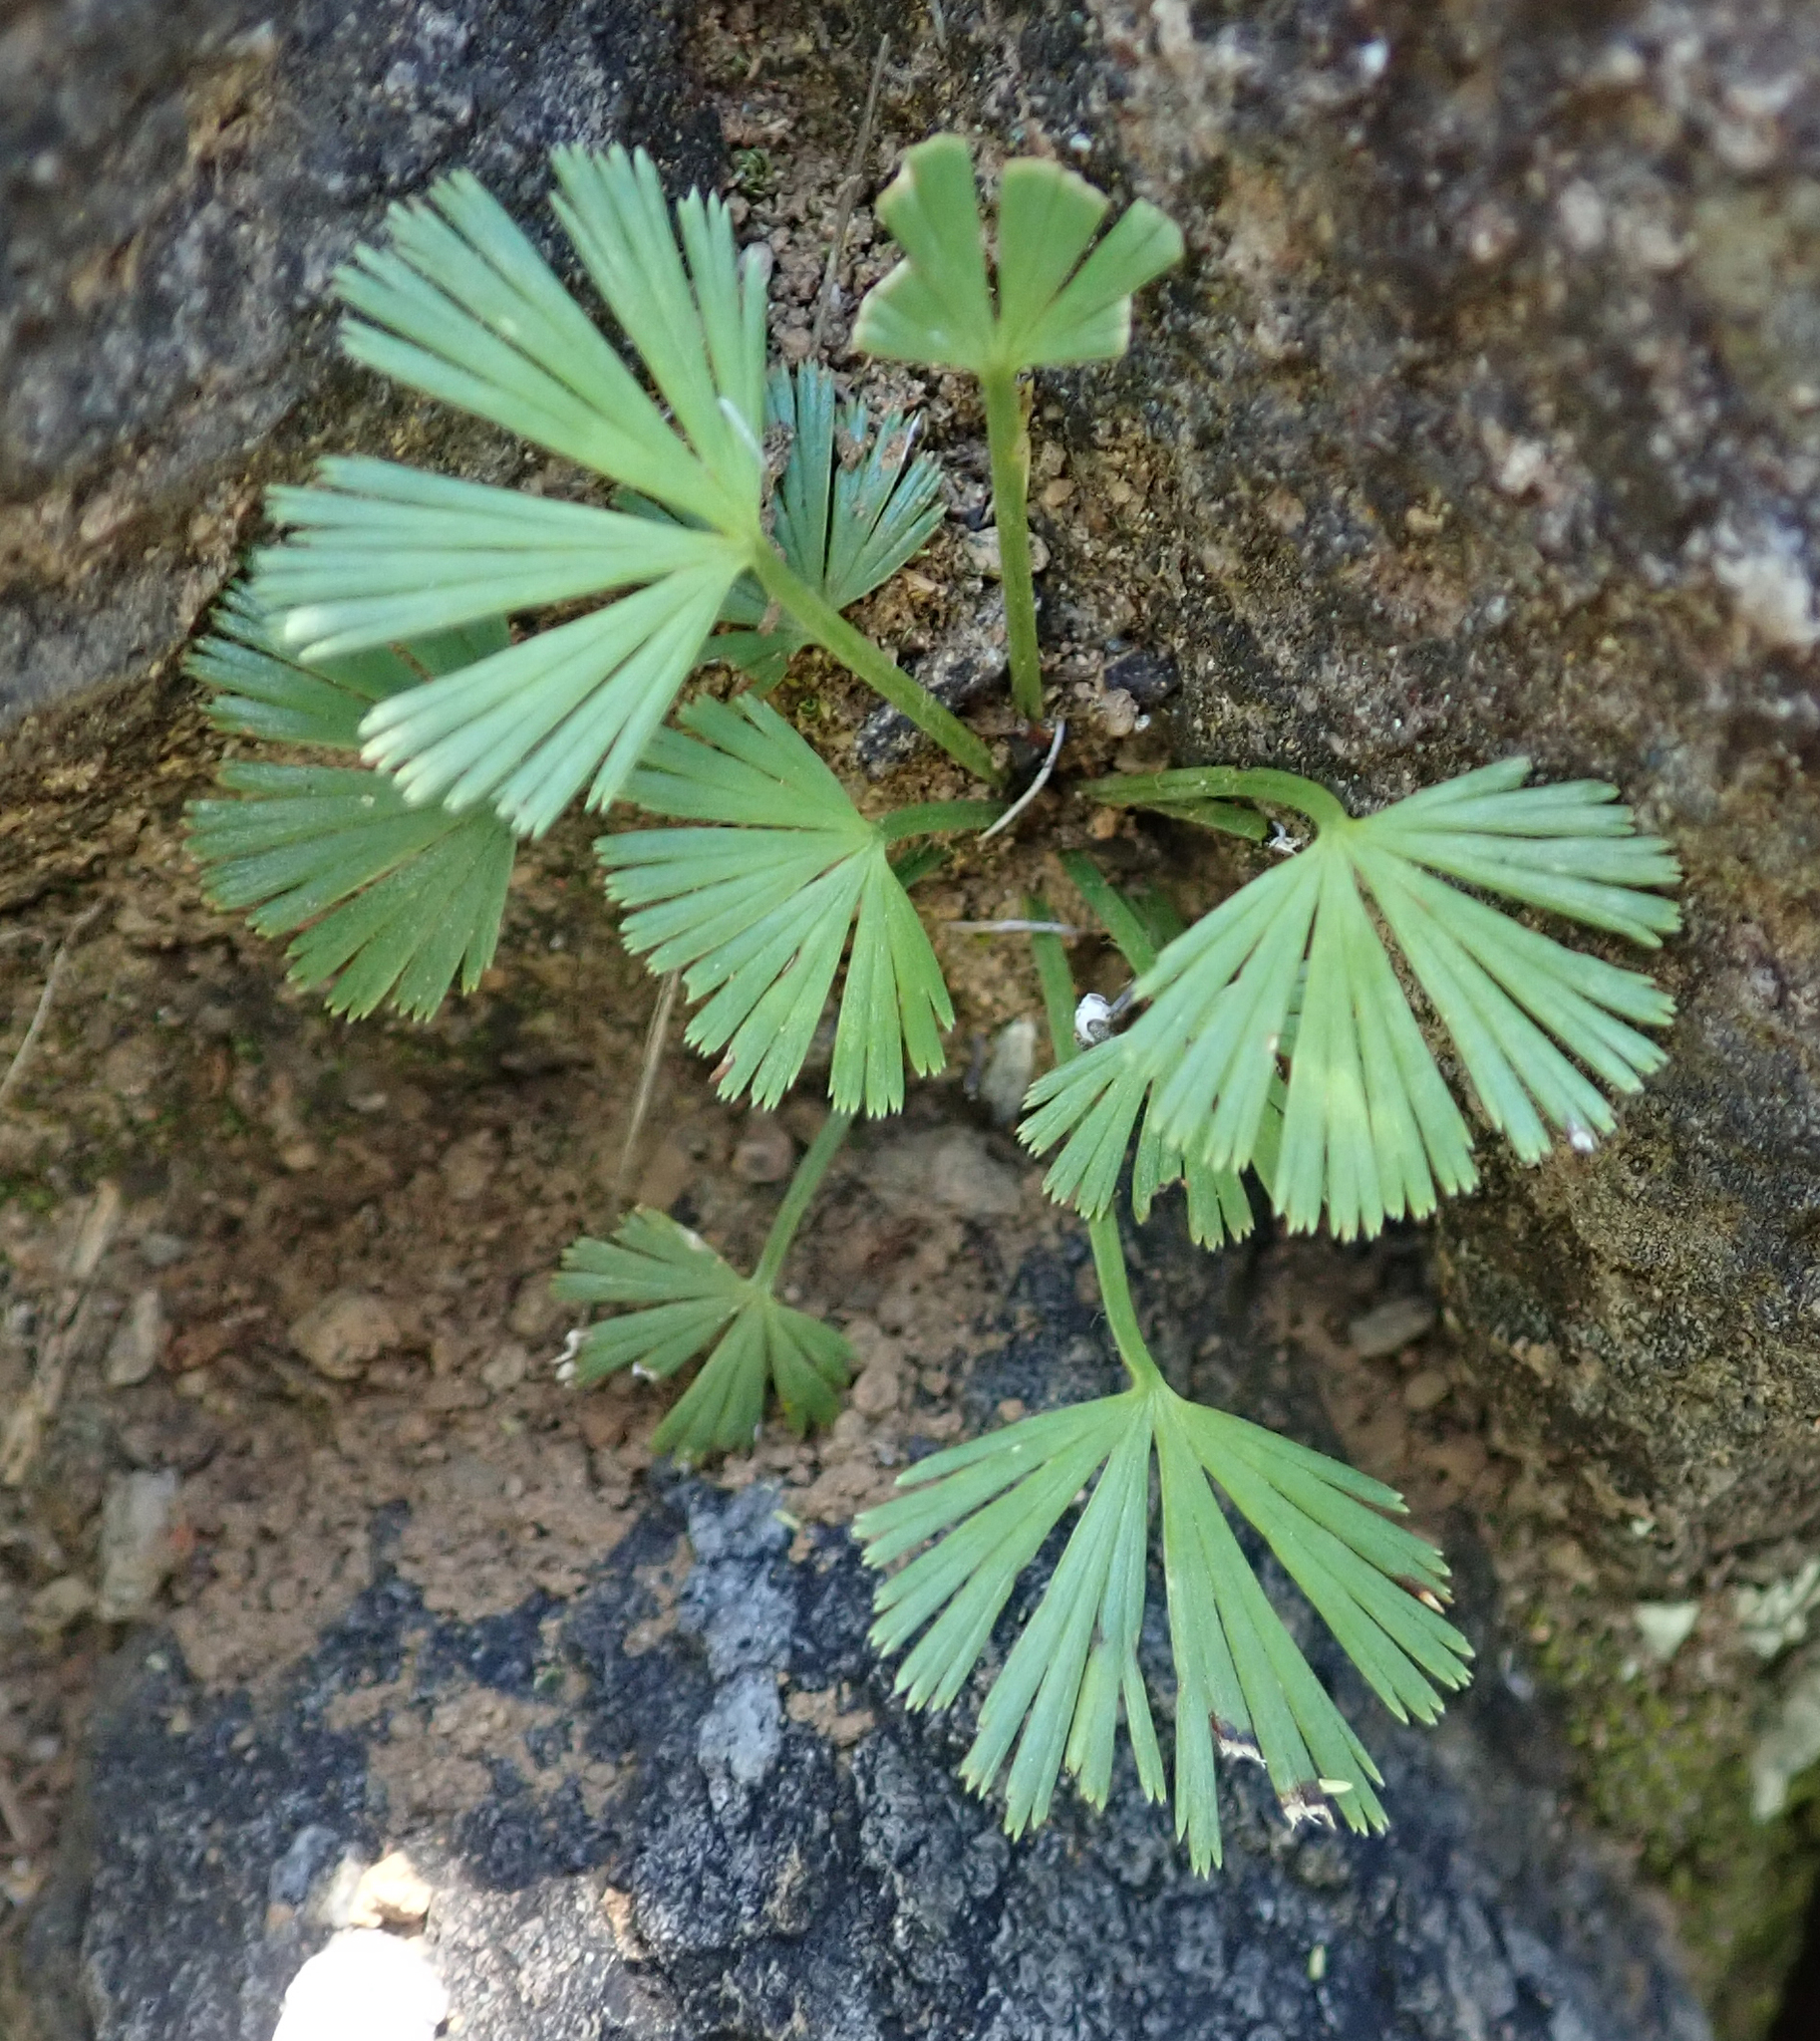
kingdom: Plantae
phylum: Tracheophyta
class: Polypodiopsida
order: Polypodiales
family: Pteridaceae
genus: Actiniopteris
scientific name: Actiniopteris radiata
